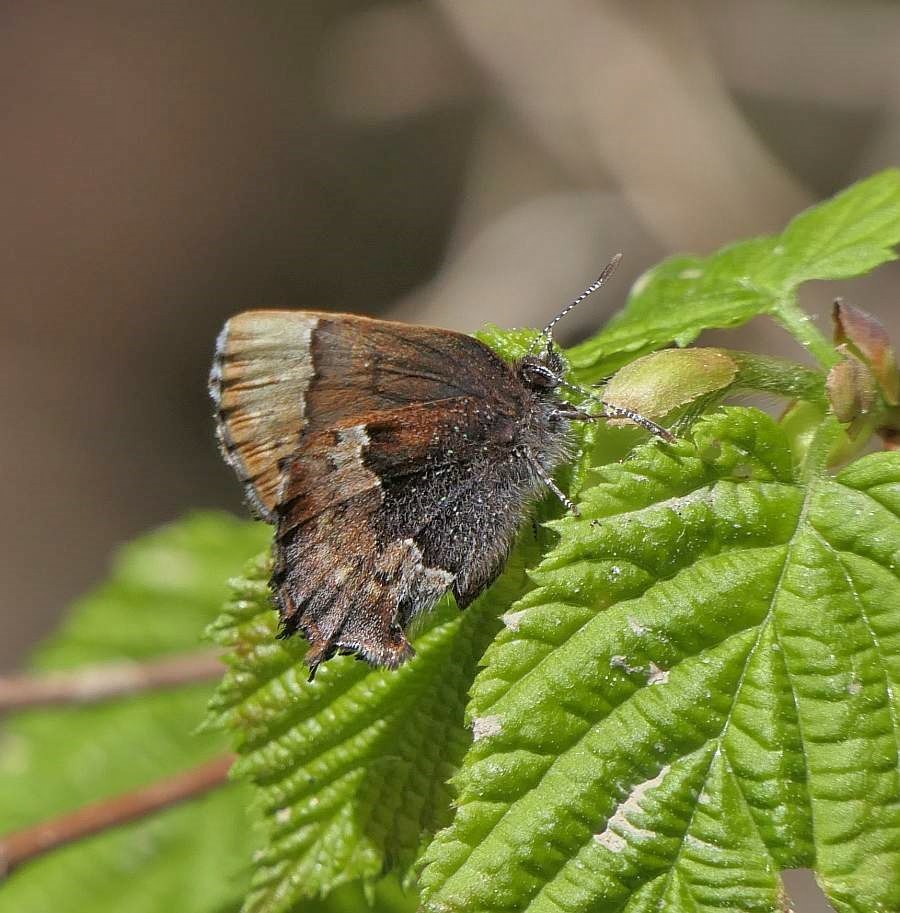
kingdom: Animalia
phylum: Arthropoda
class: Insecta
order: Lepidoptera
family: Lycaenidae
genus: Incisalia
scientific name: Incisalia henrici
